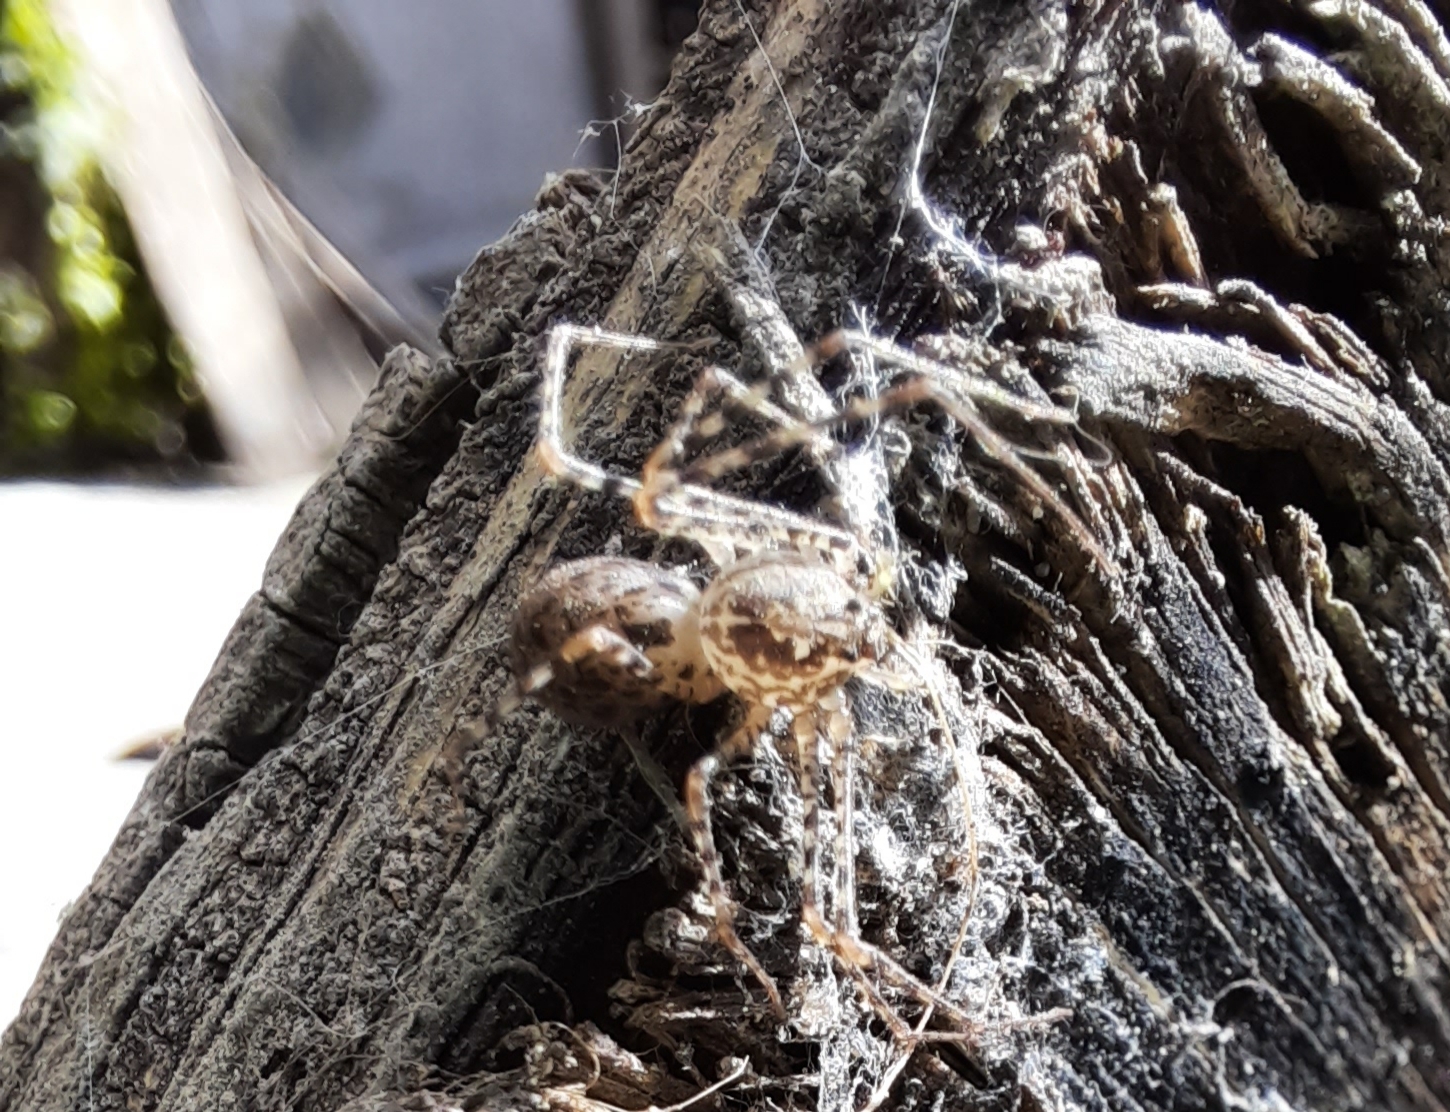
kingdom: Animalia
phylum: Arthropoda
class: Arachnida
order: Araneae
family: Scytodidae
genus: Scytodes
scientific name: Scytodes globula
